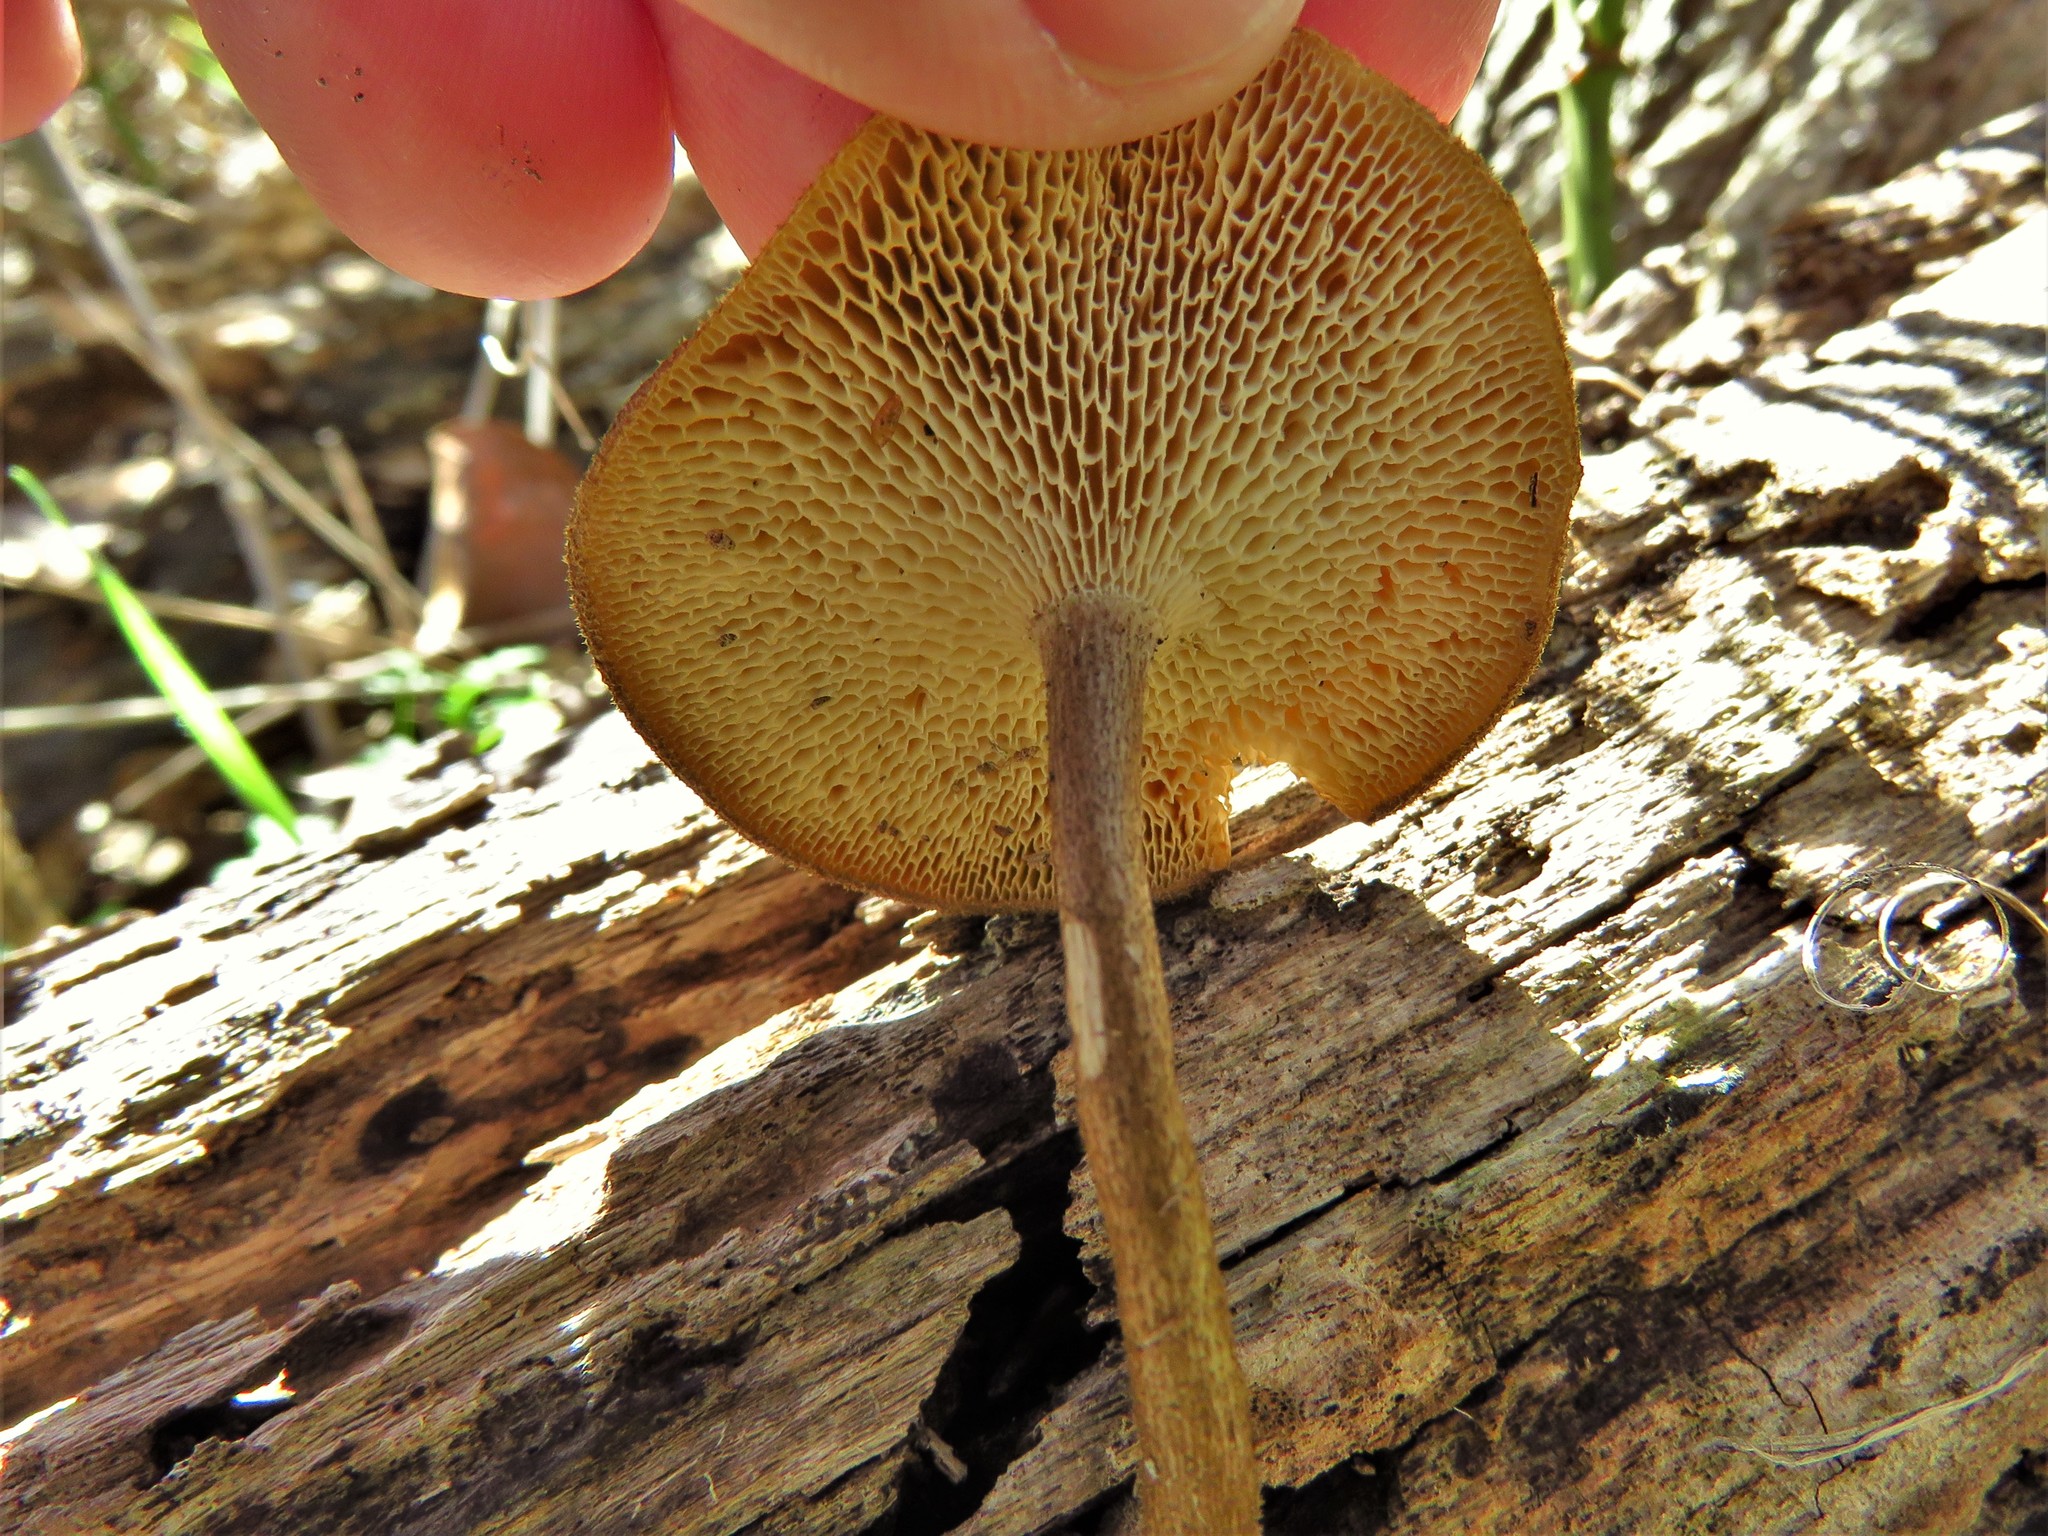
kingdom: Fungi
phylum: Basidiomycota
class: Agaricomycetes
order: Polyporales
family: Polyporaceae
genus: Lentinus
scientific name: Lentinus arcularius
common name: Spring polypore
